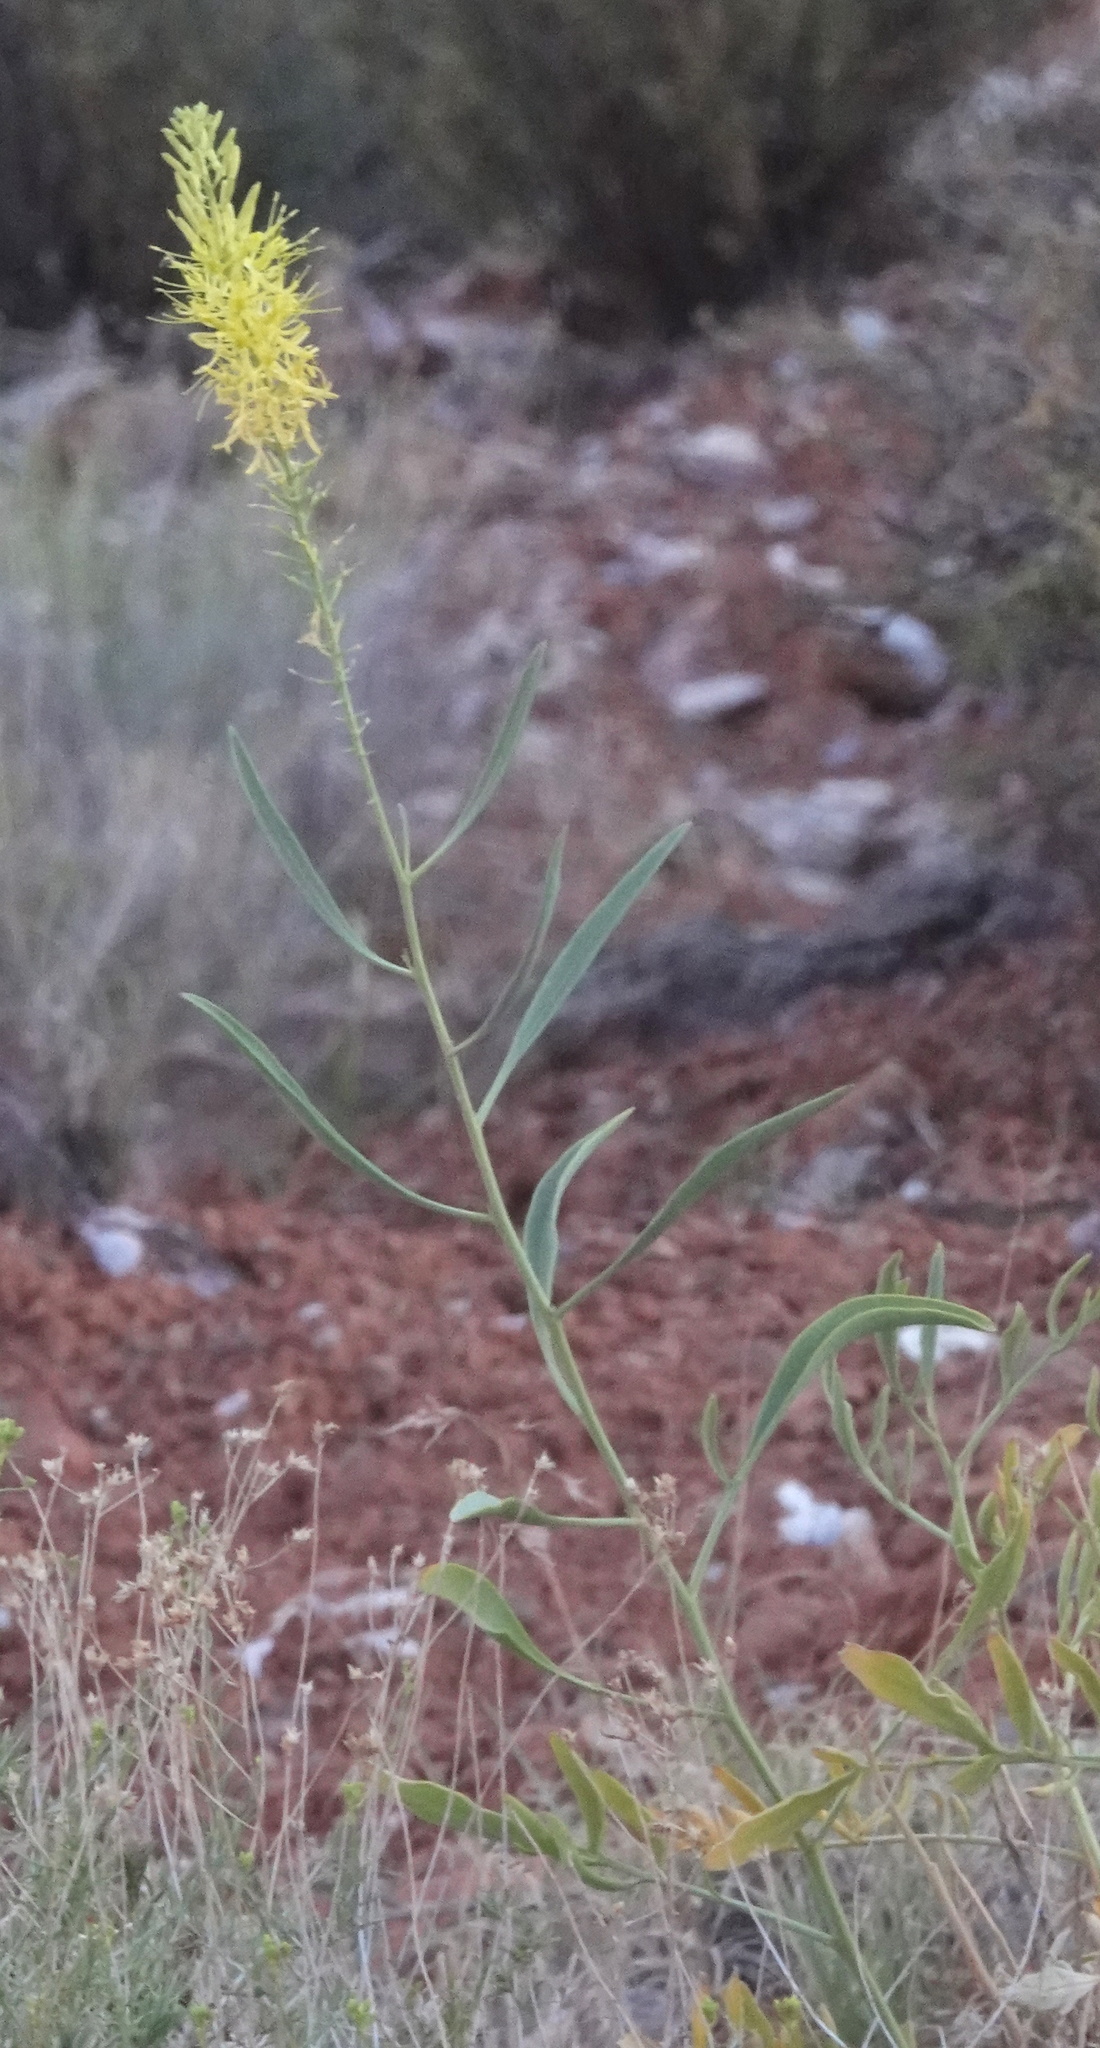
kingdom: Plantae
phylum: Tracheophyta
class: Magnoliopsida
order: Brassicales
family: Brassicaceae
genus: Stanleya
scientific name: Stanleya pinnata
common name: Prince's-plume
